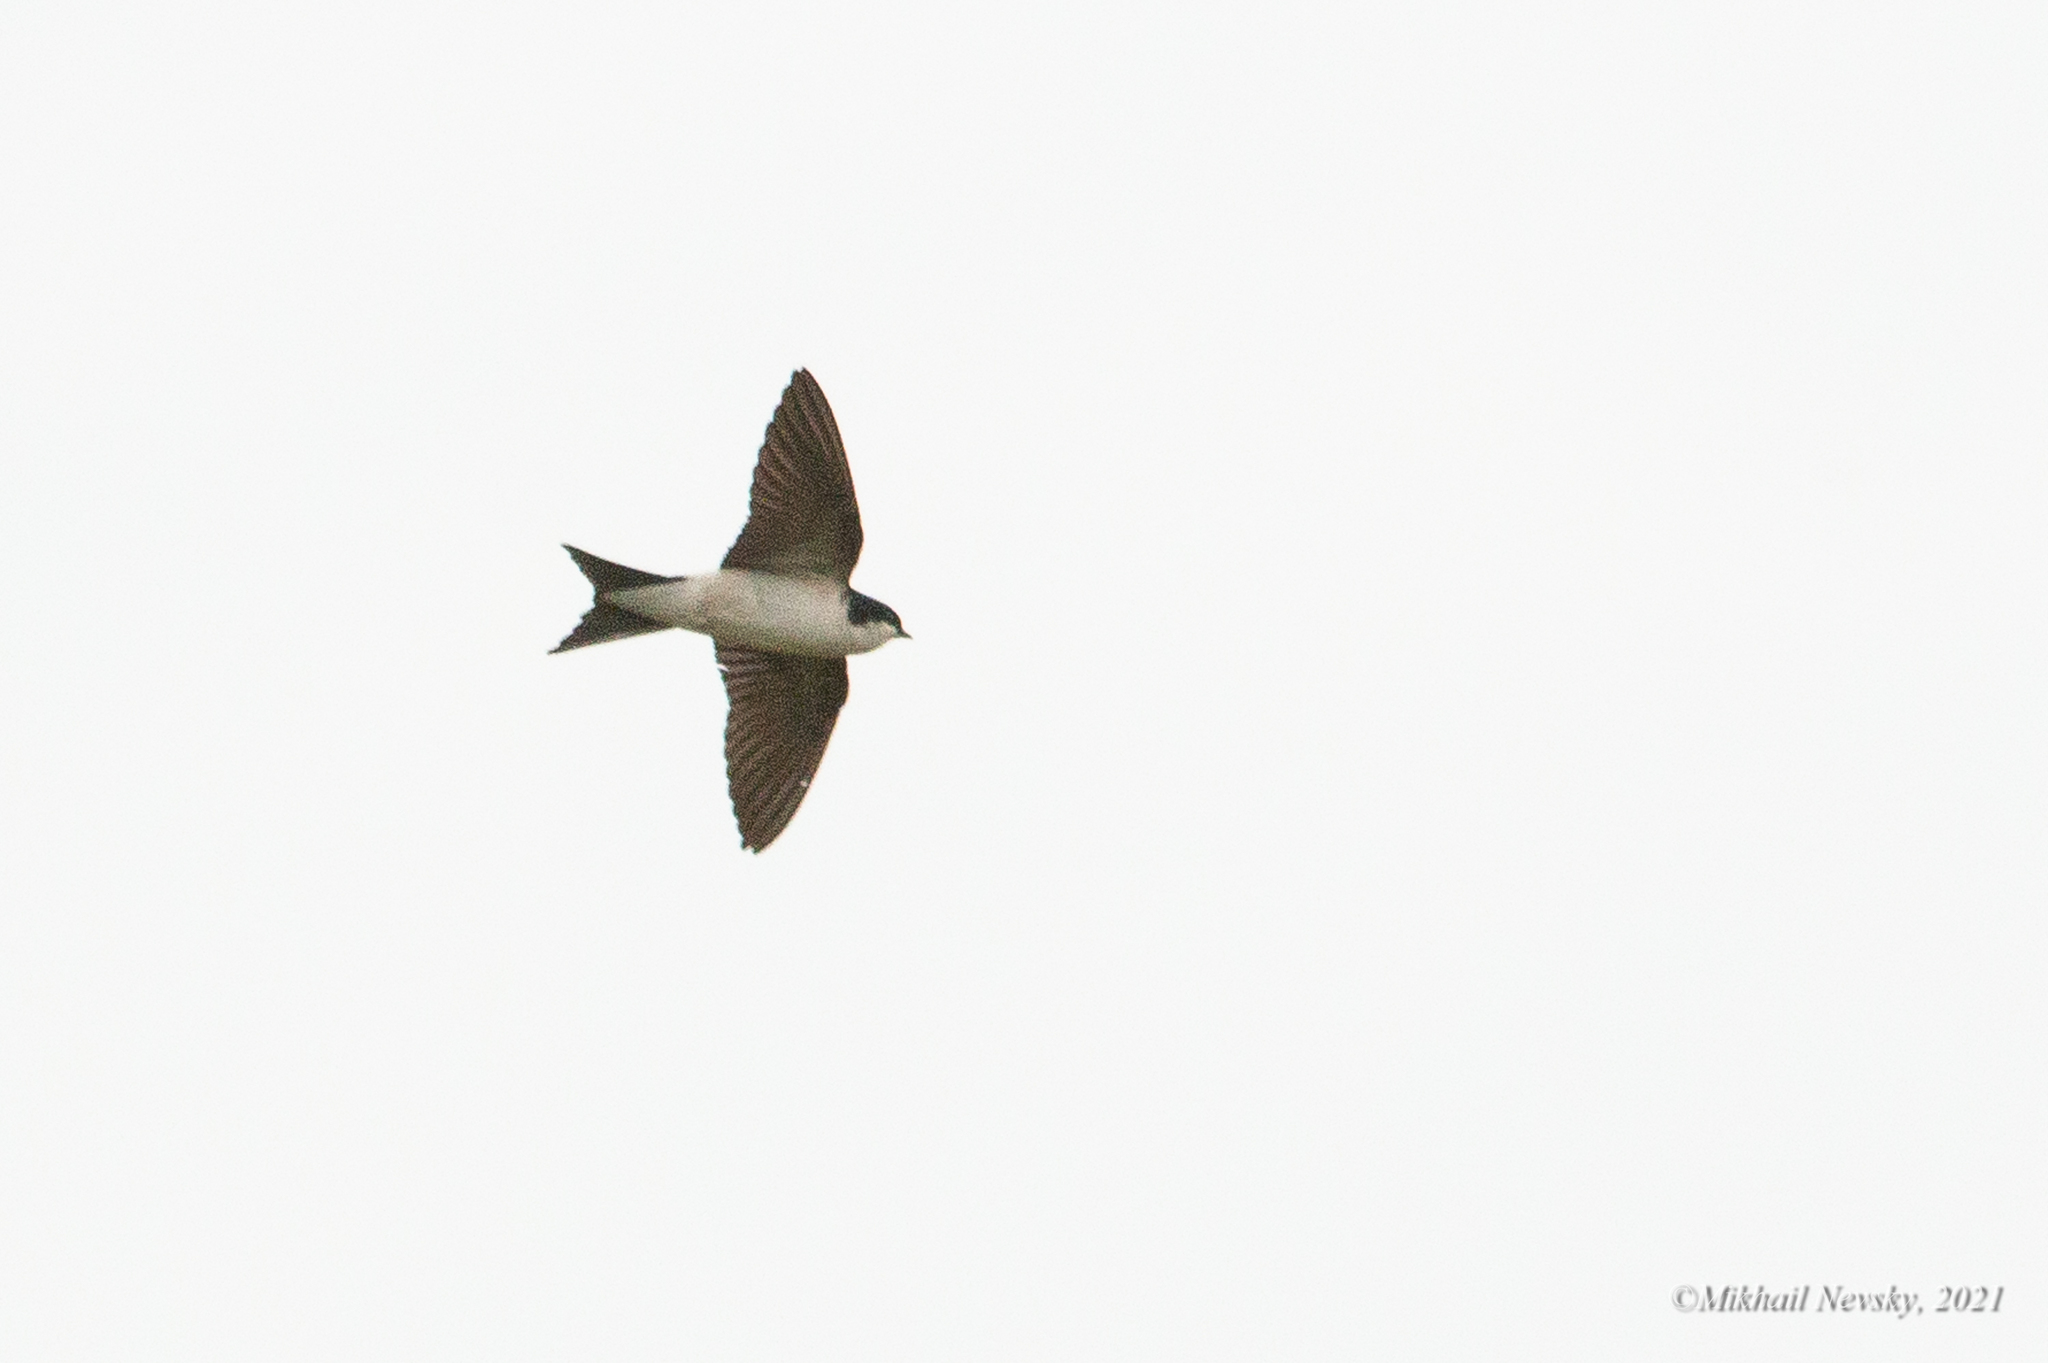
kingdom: Animalia
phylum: Chordata
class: Aves
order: Passeriformes
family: Hirundinidae
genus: Delichon
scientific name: Delichon urbicum
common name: Common house martin
